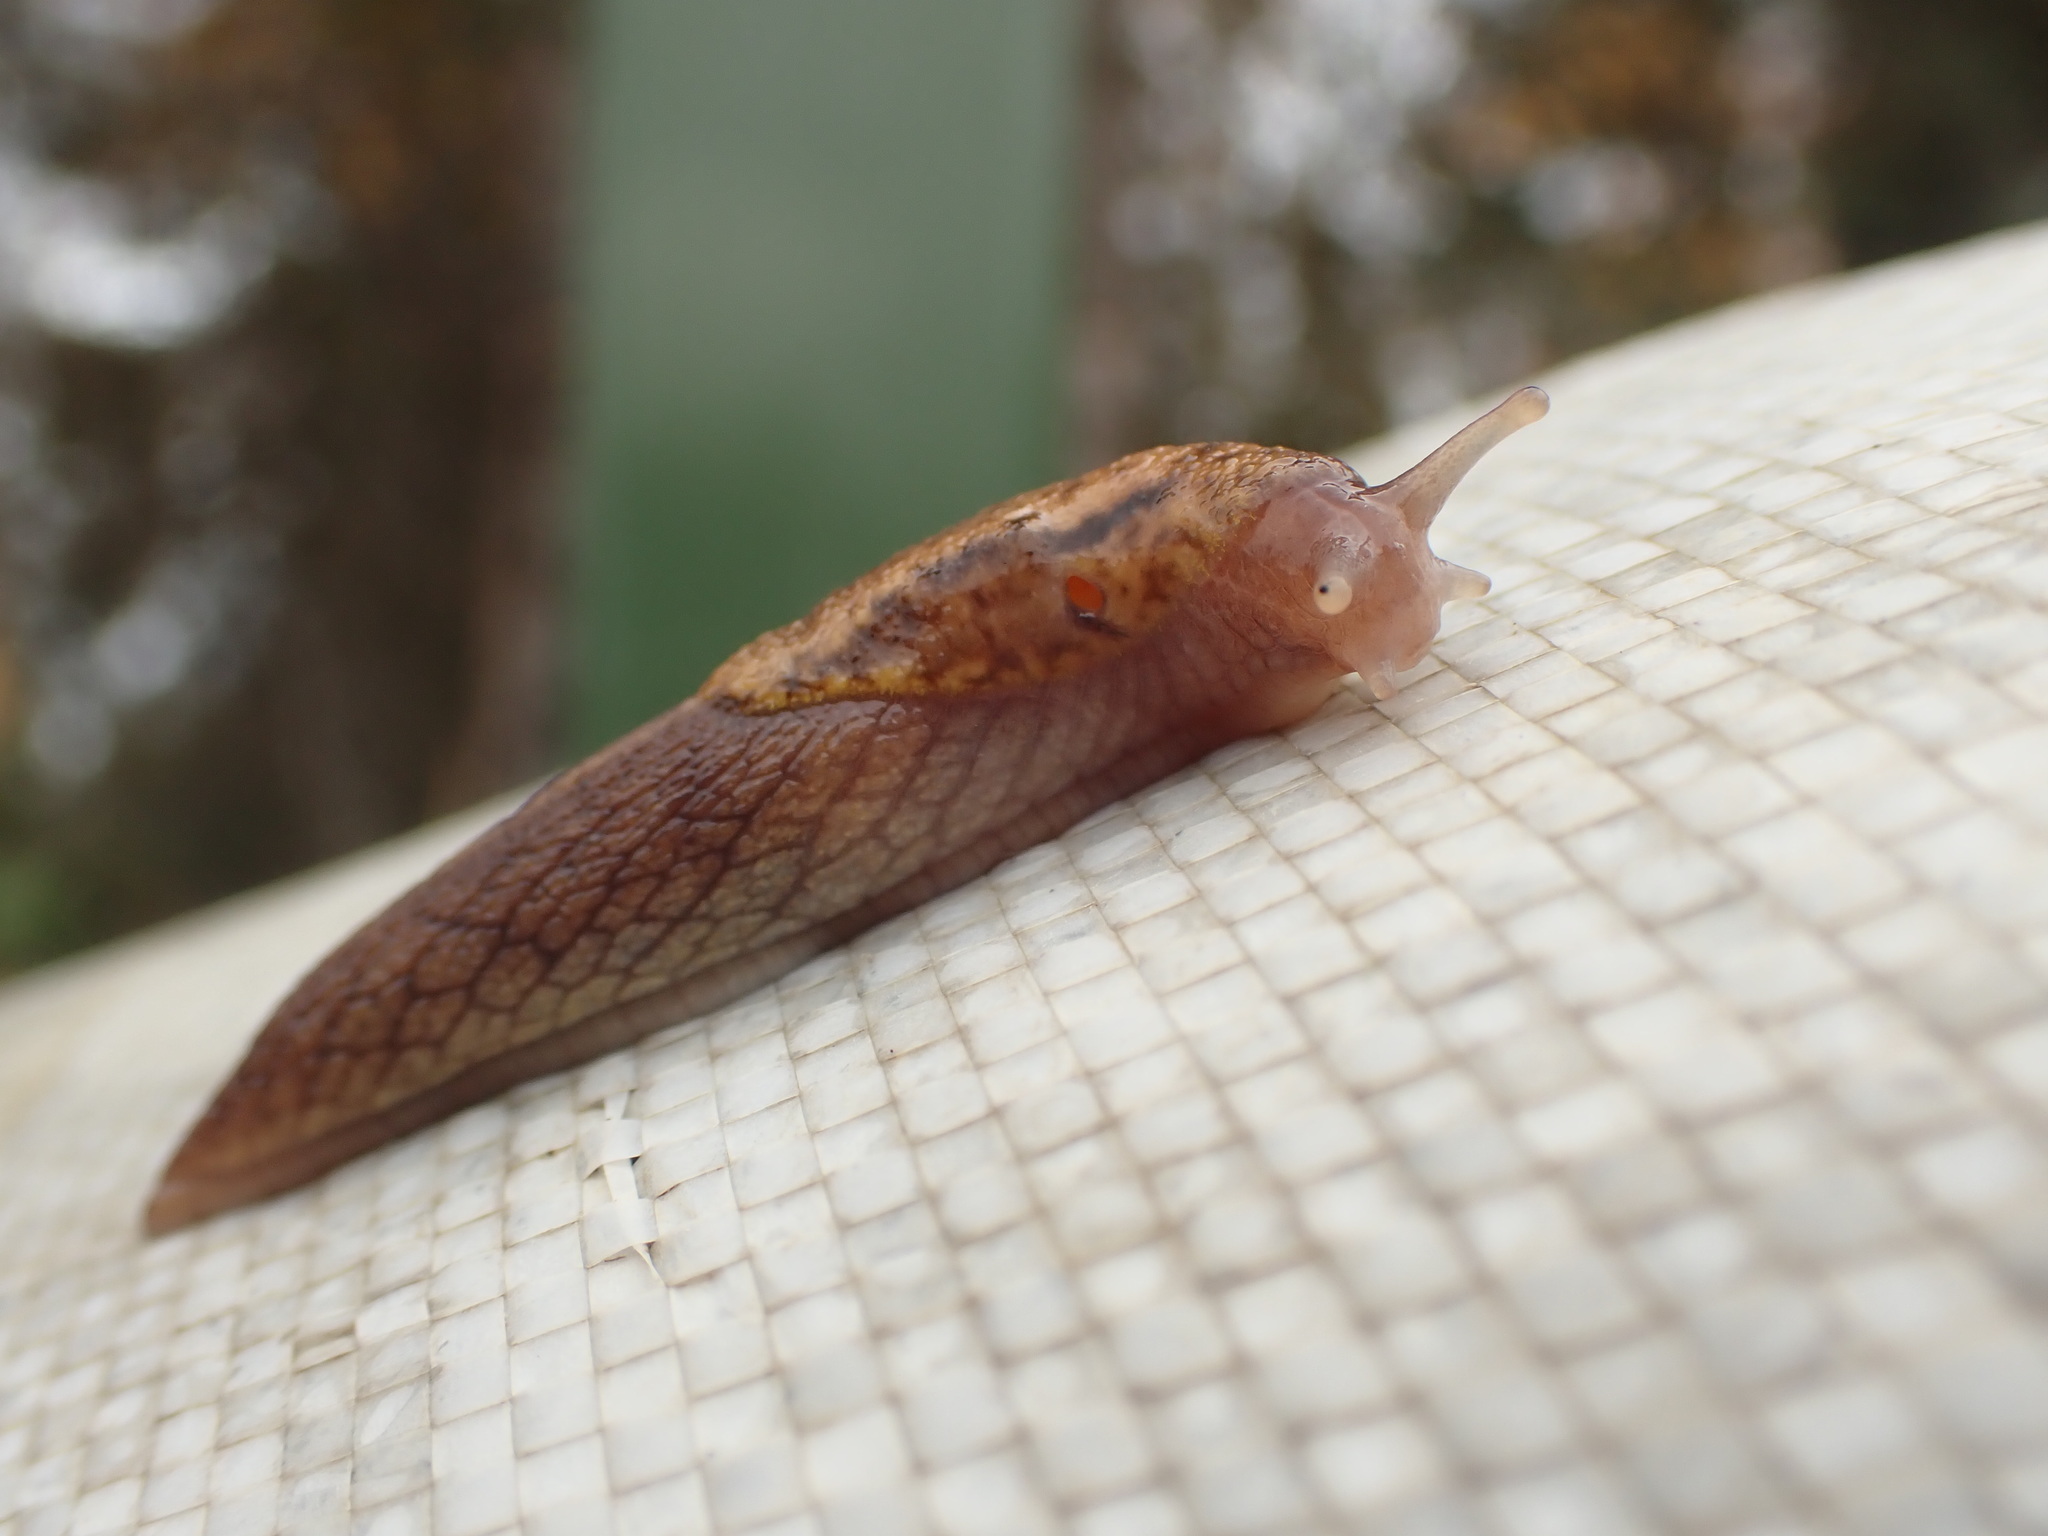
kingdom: Animalia
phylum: Mollusca
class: Gastropoda
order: Stylommatophora
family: Ariolimacidae
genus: Prophysaon
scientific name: Prophysaon andersonii
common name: Reticulate taildropper
